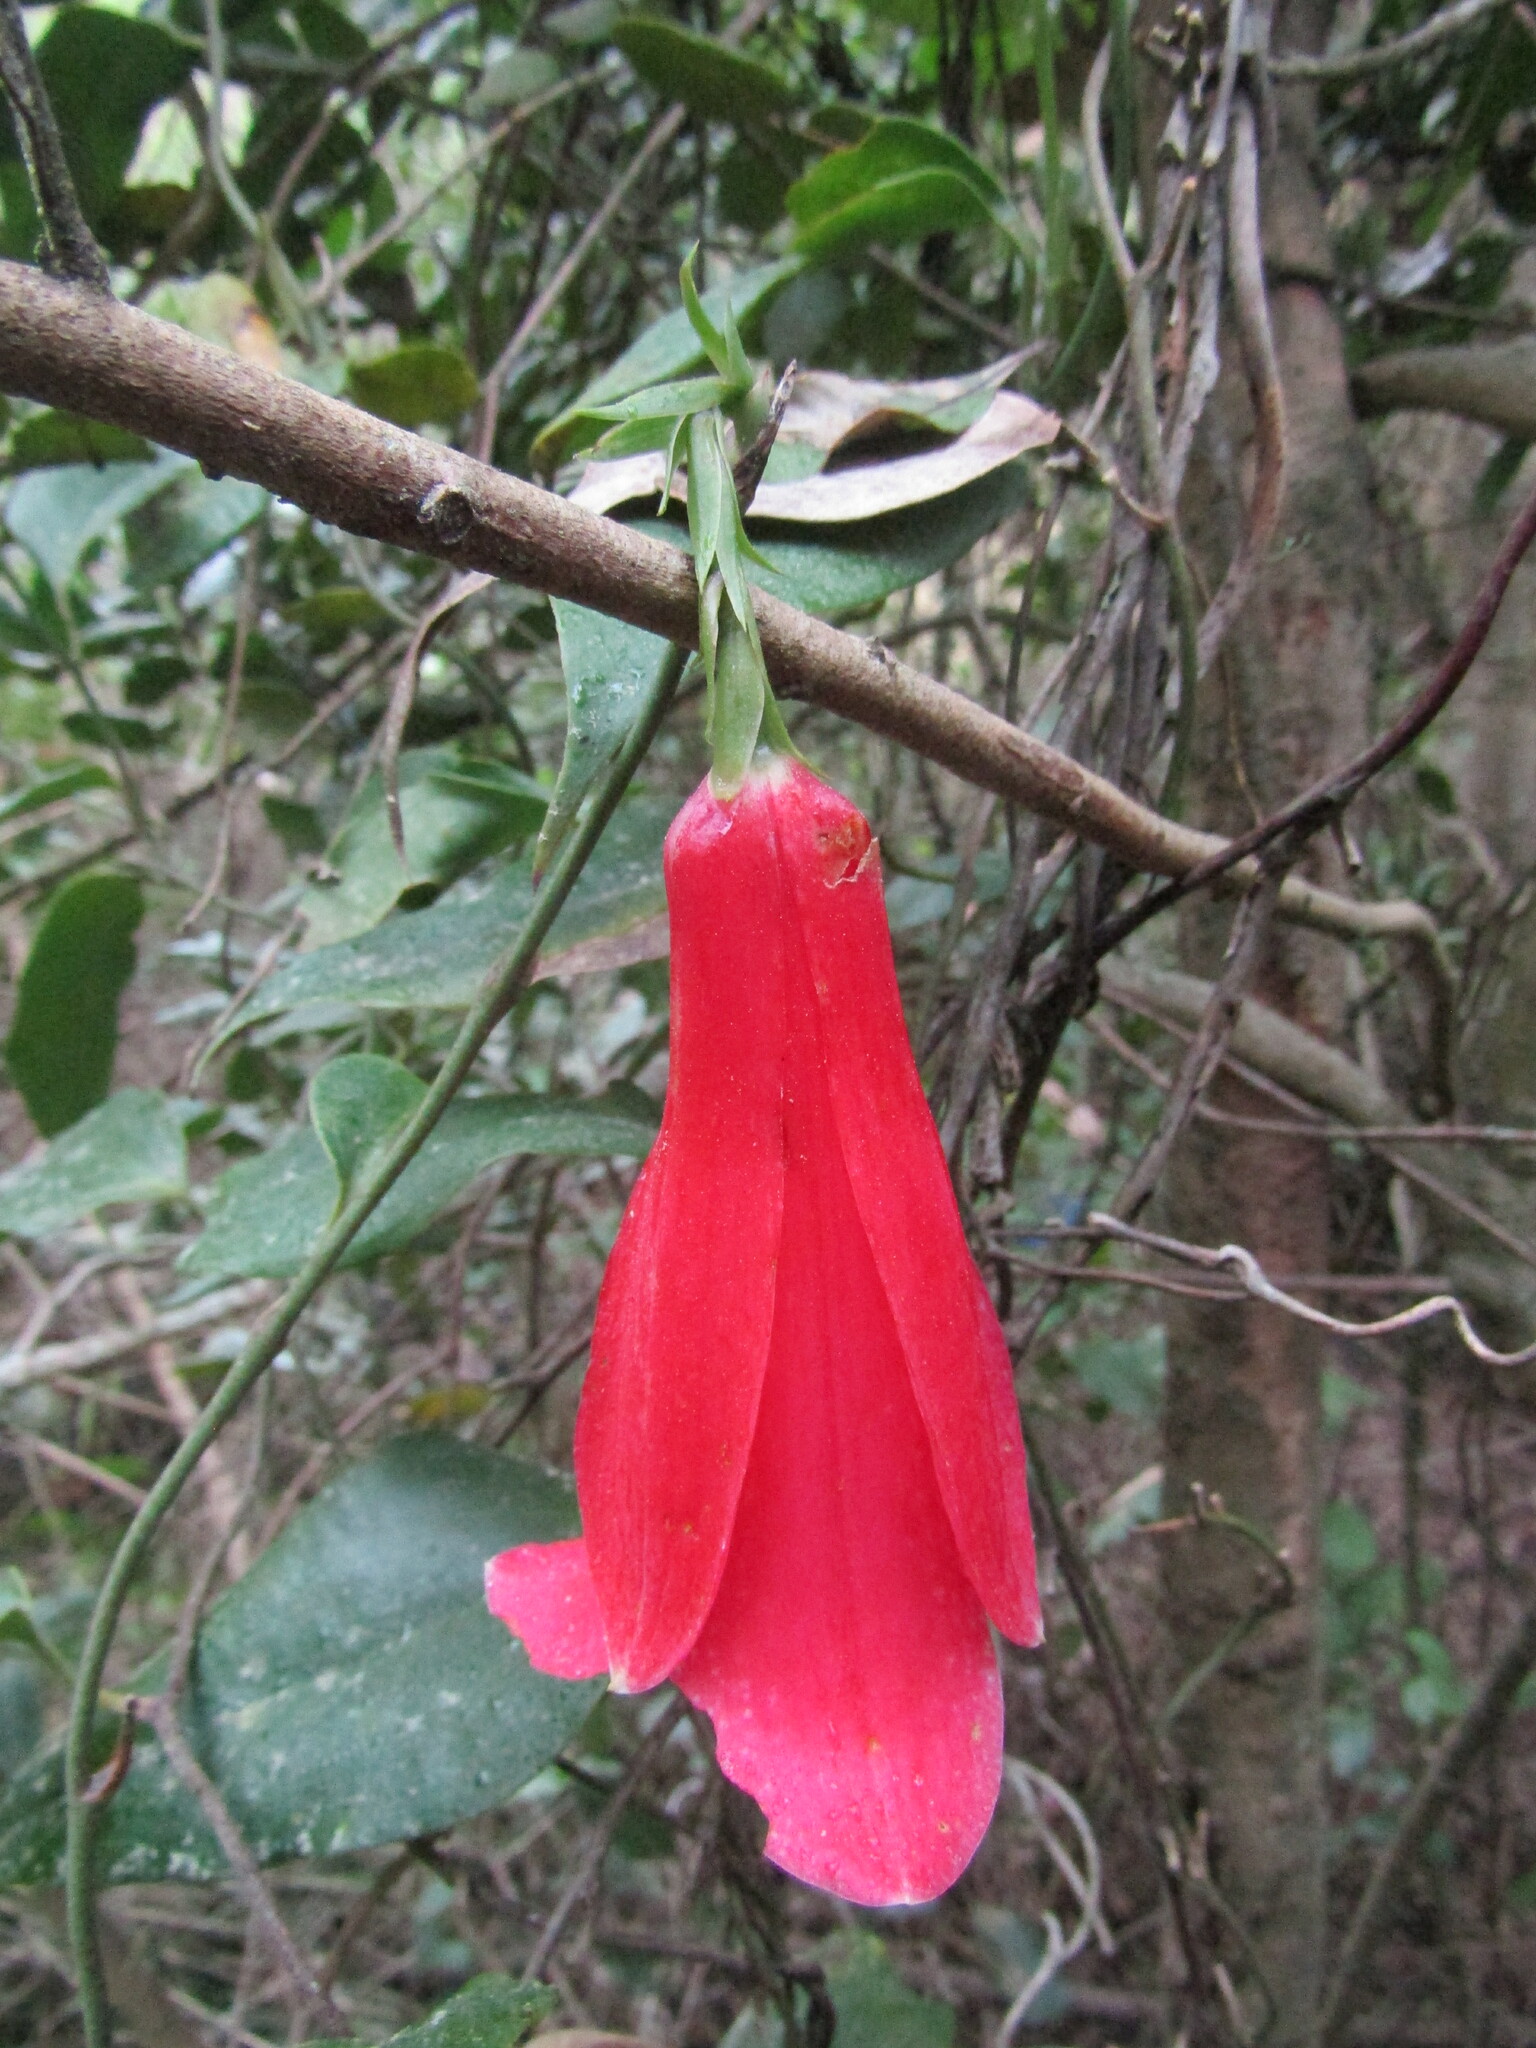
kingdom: Plantae
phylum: Tracheophyta
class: Liliopsida
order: Liliales
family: Philesiaceae
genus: Lapageria
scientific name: Lapageria rosea
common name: Chilean-bellflower
